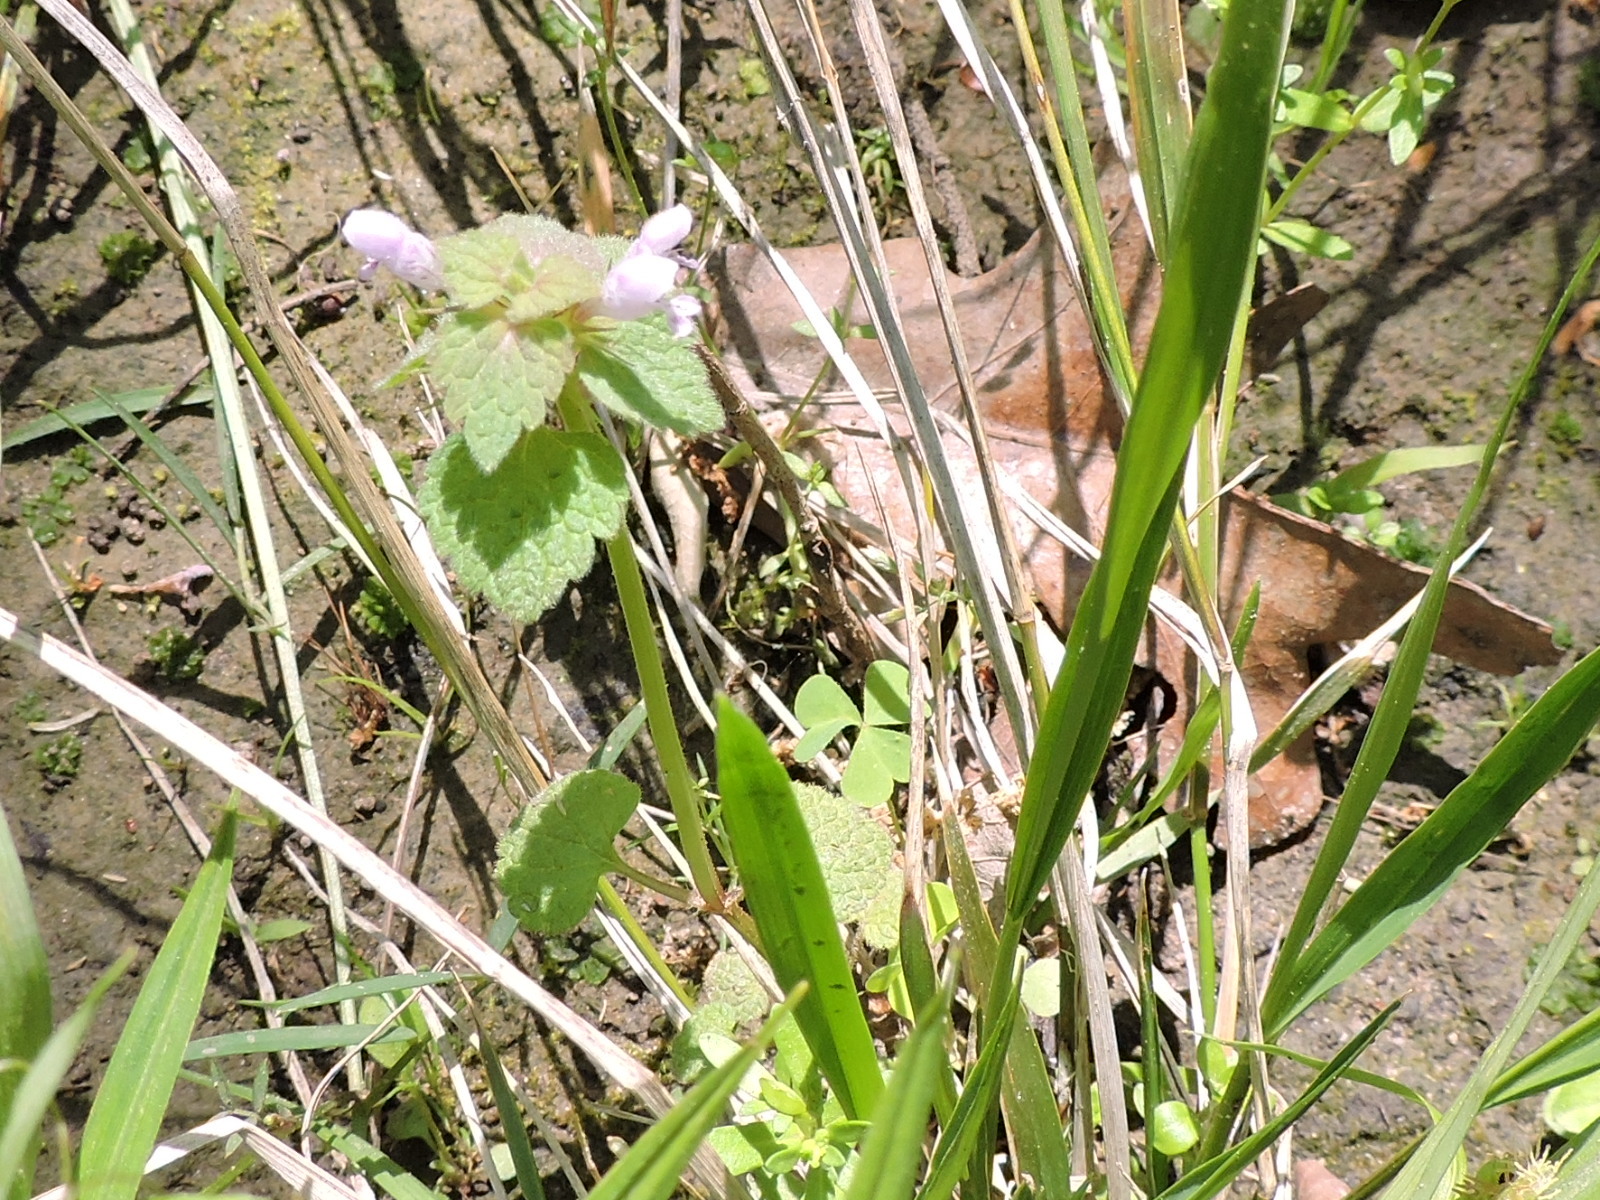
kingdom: Plantae
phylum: Tracheophyta
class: Magnoliopsida
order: Lamiales
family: Lamiaceae
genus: Lamium
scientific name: Lamium purpureum
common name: Red dead-nettle
